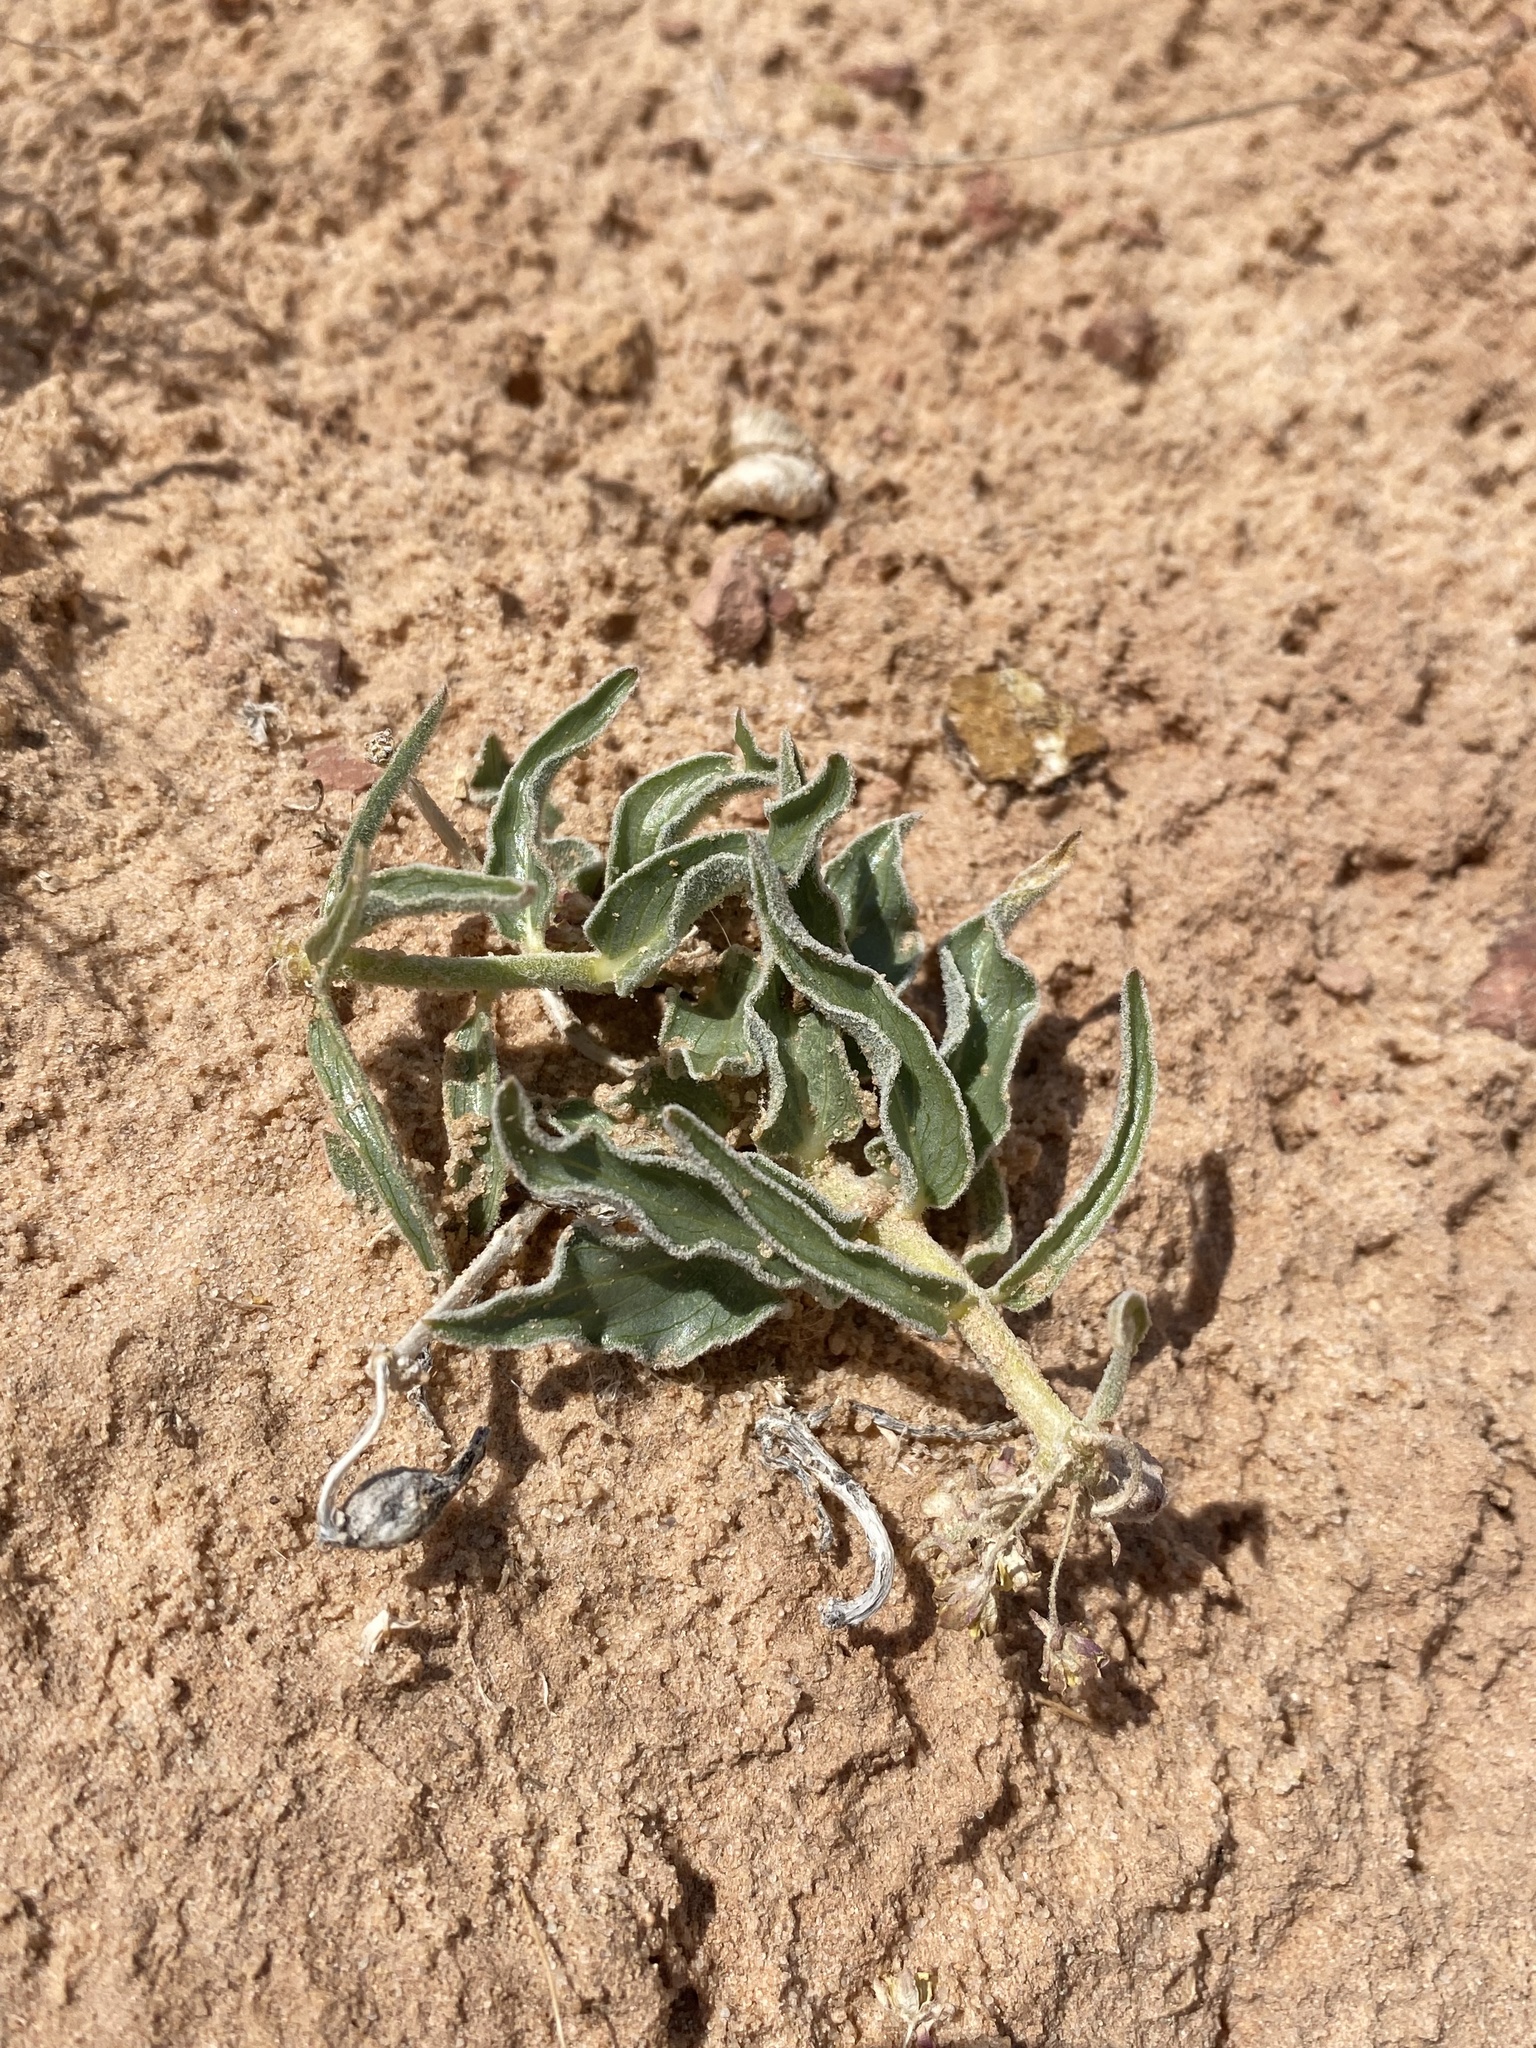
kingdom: Plantae
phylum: Tracheophyta
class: Magnoliopsida
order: Gentianales
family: Apocynaceae
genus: Asclepias
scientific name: Asclepias involucrata
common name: Dwarf milkweed
